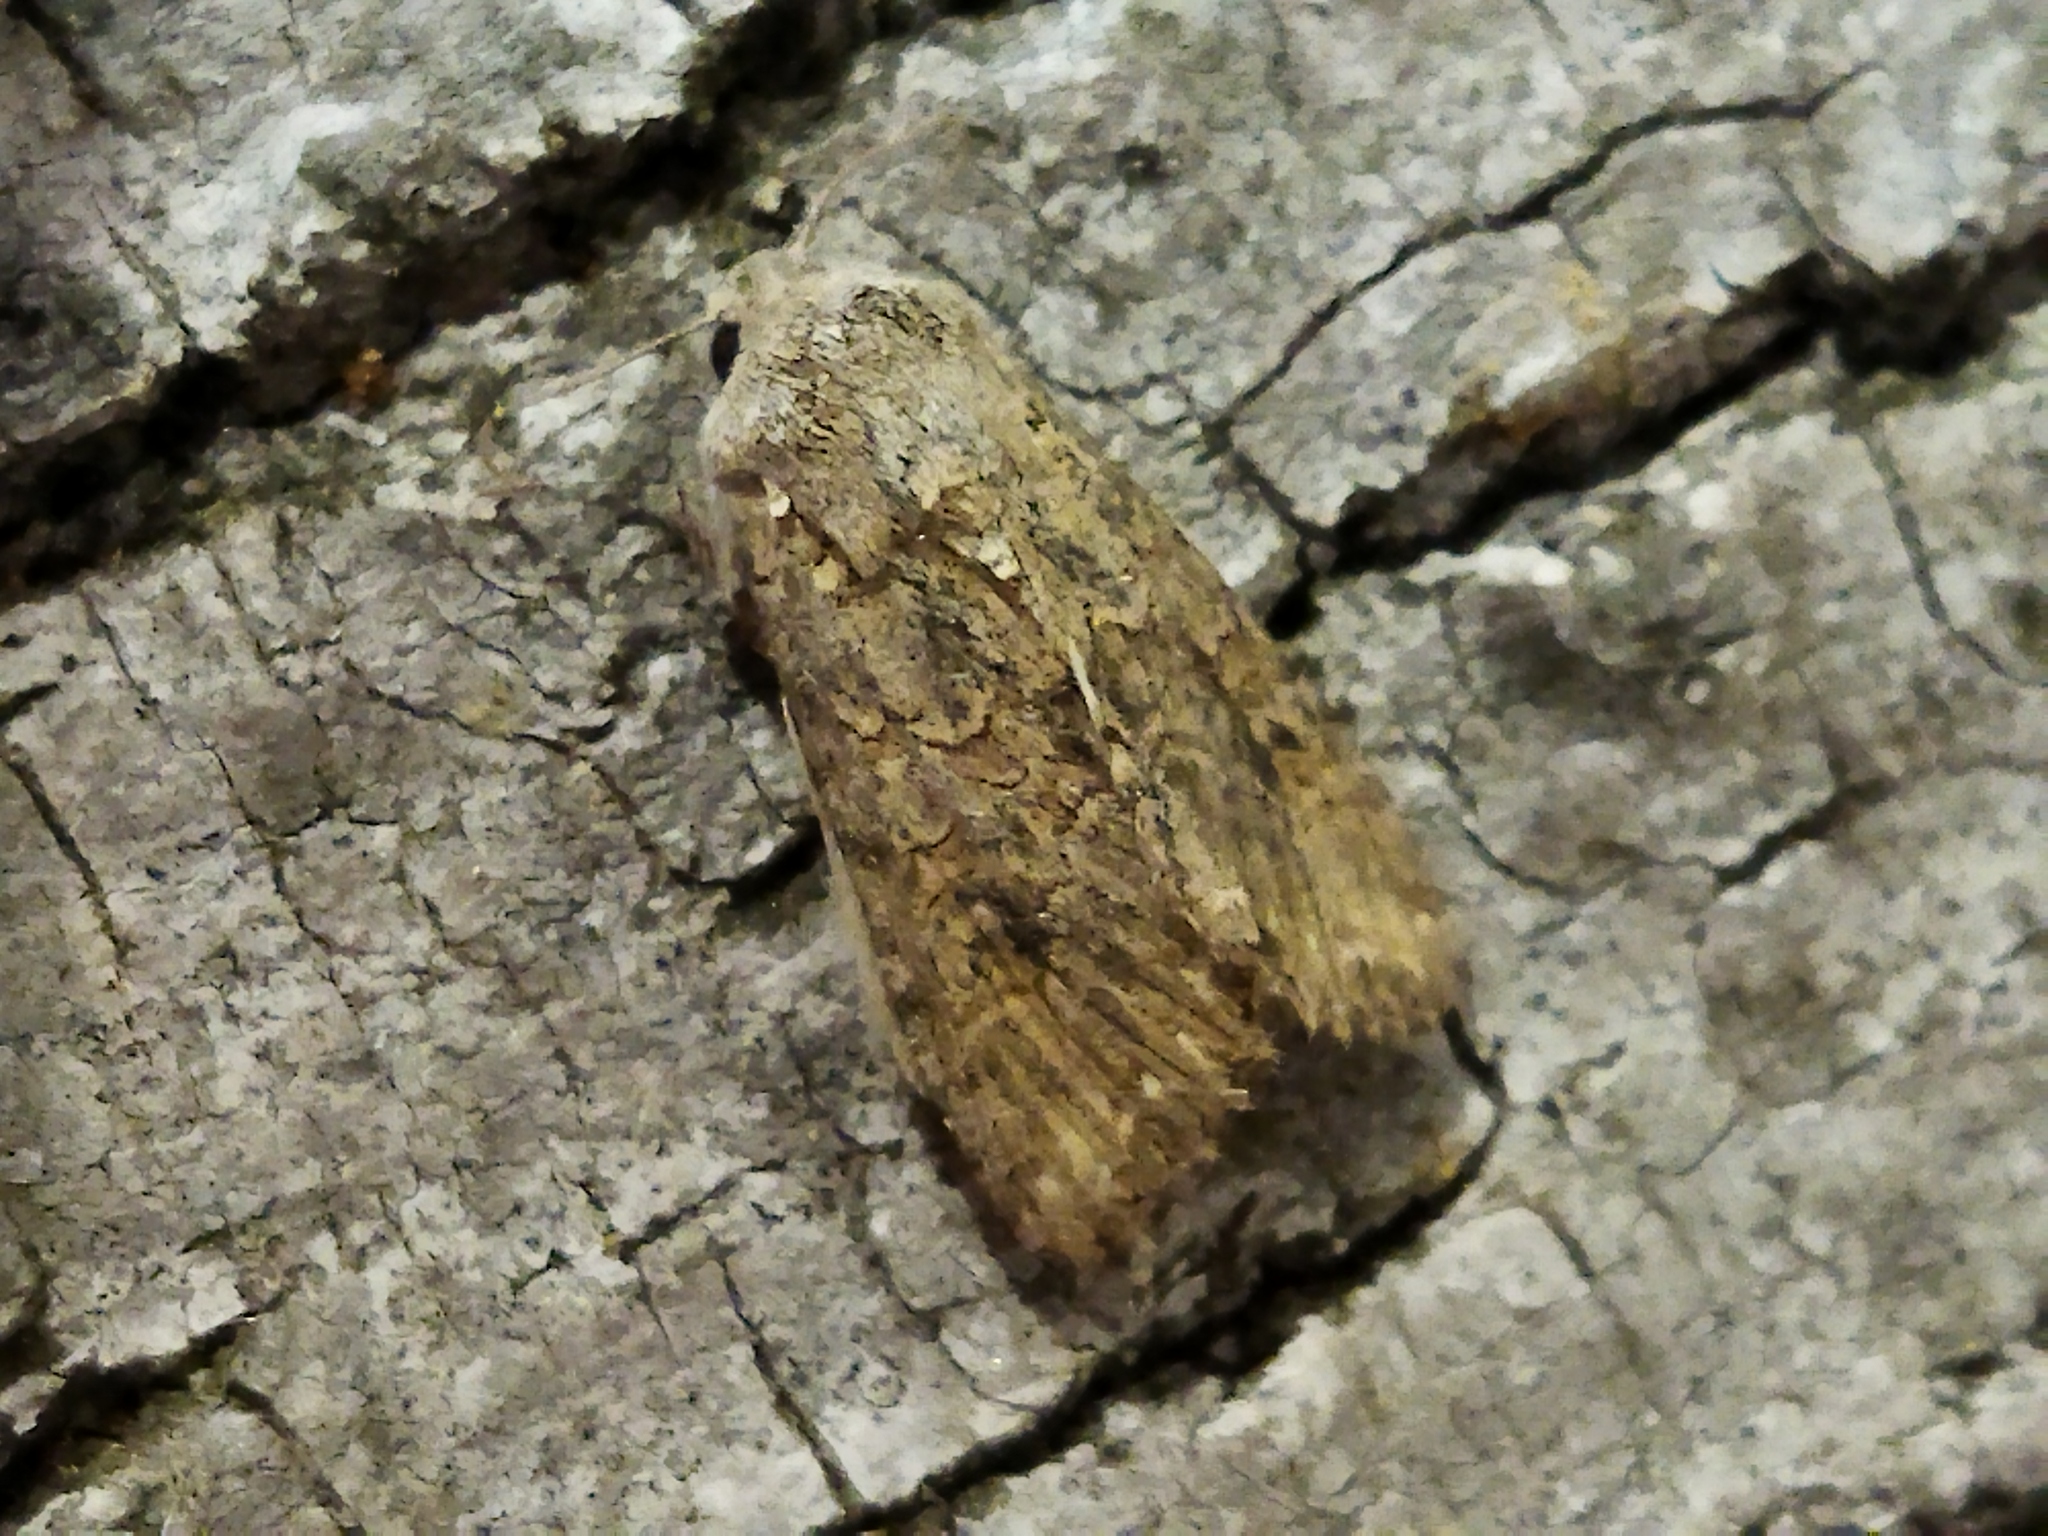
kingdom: Animalia
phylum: Arthropoda
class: Insecta
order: Lepidoptera
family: Noctuidae
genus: Anarta
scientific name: Anarta trifolii
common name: Clover cutworm moth
